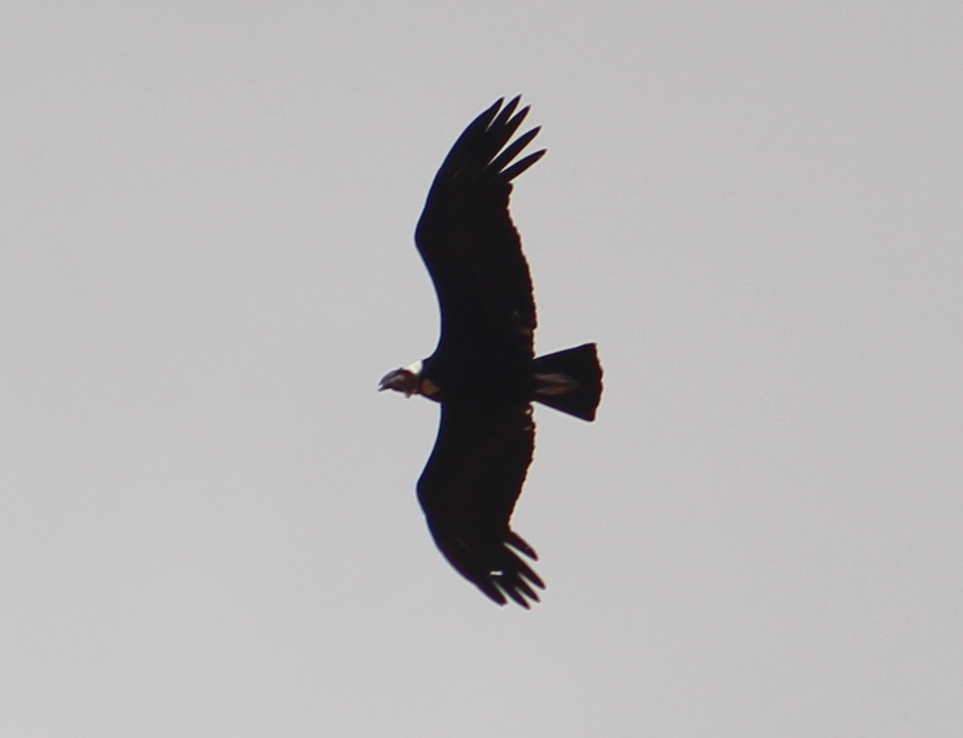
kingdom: Animalia
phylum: Chordata
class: Aves
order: Accipitriformes
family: Cathartidae
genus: Vultur
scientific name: Vultur gryphus
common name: Andean condor
